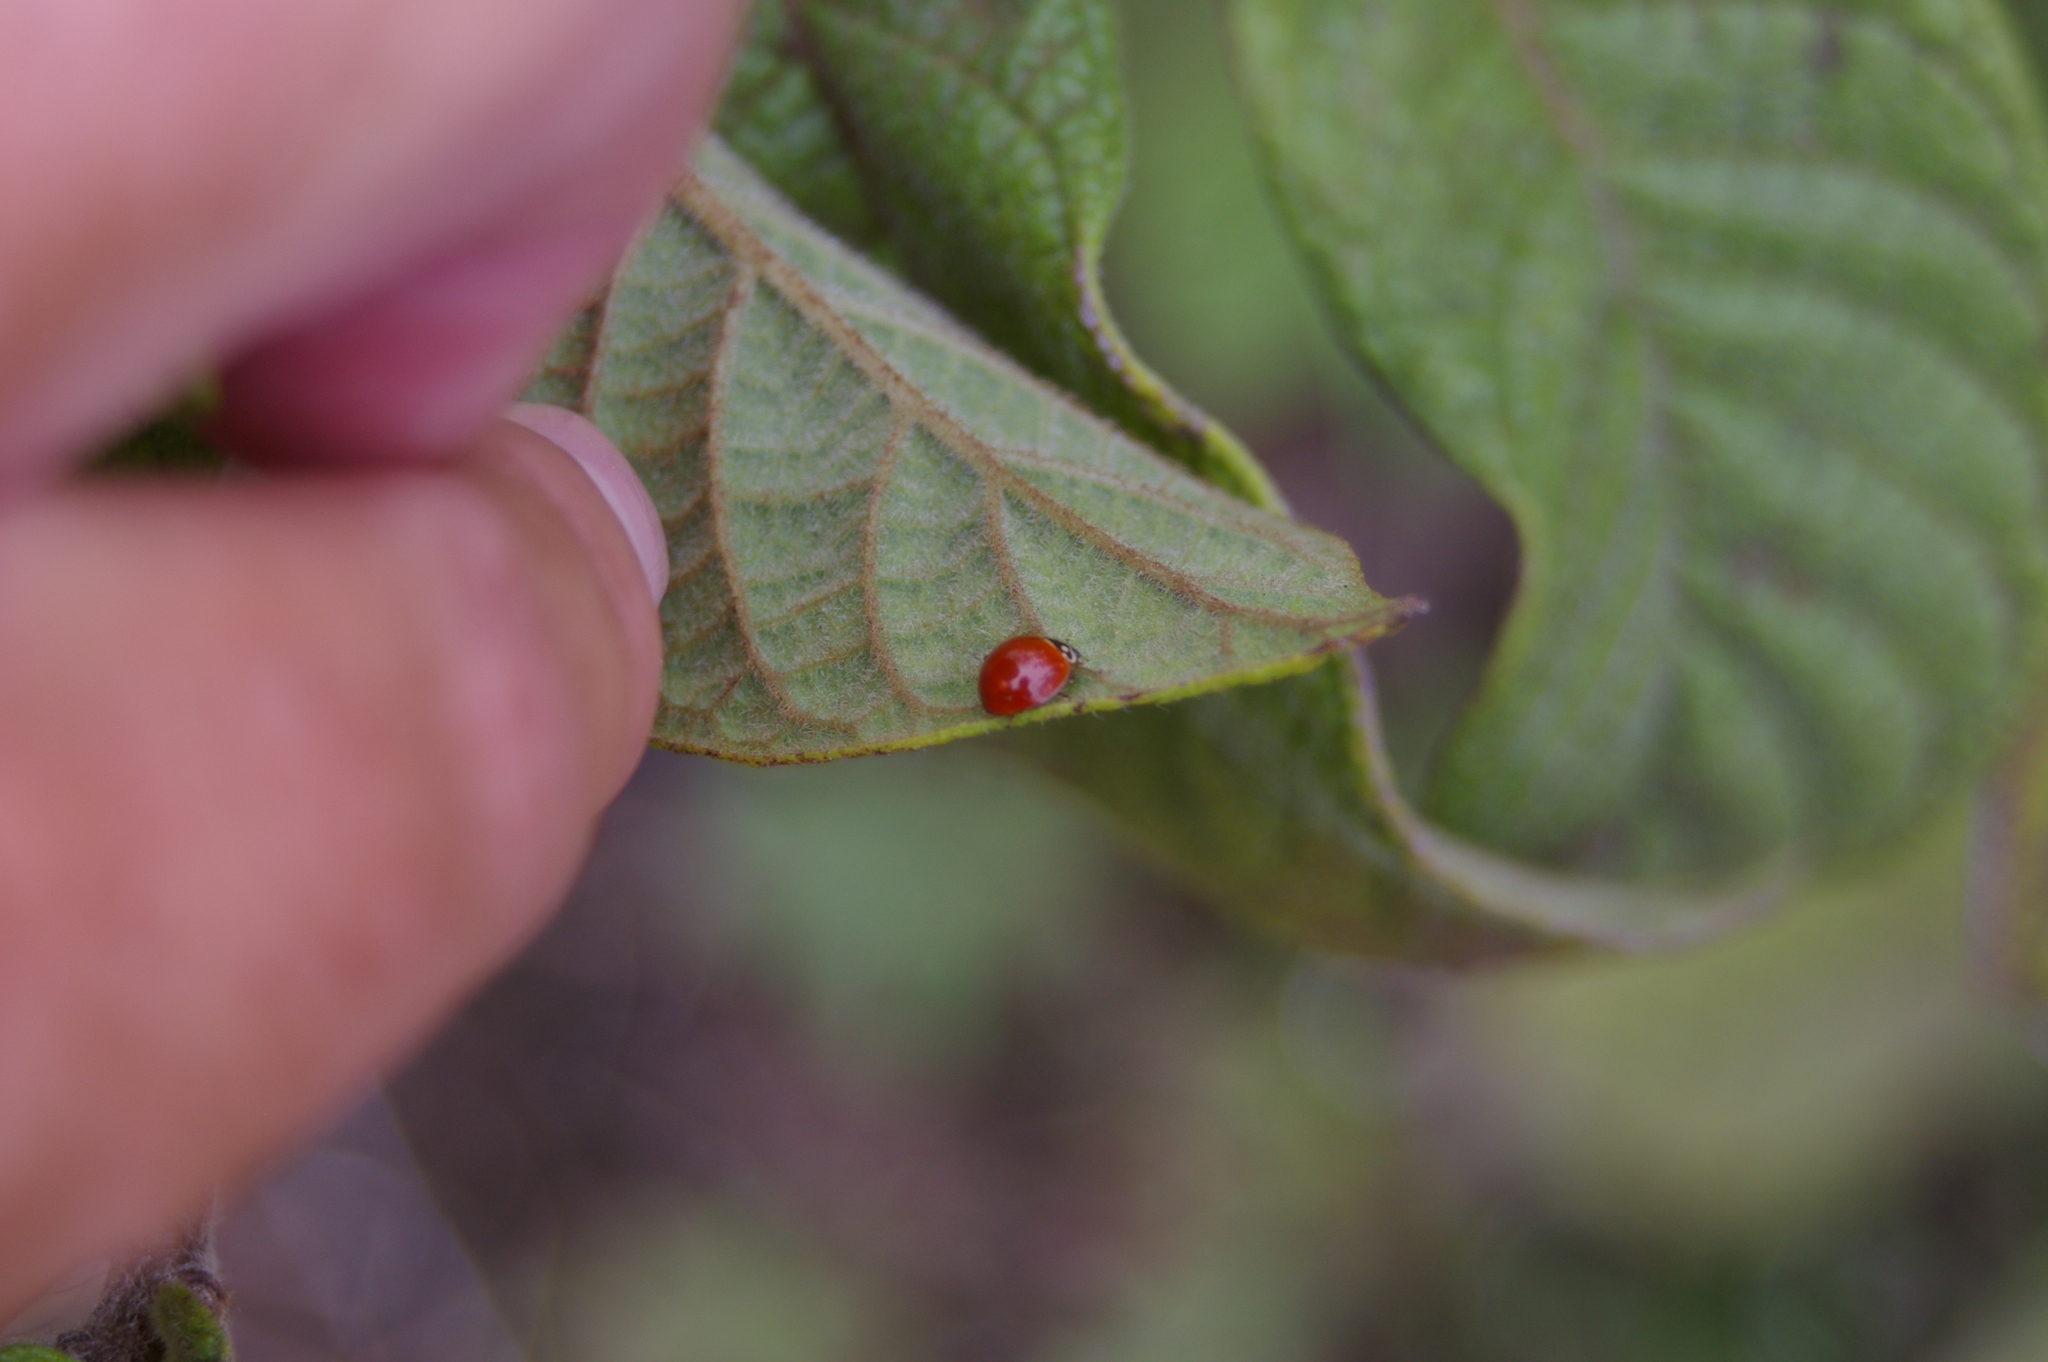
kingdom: Animalia
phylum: Arthropoda
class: Insecta
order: Coleoptera
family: Coccinellidae
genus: Cycloneda
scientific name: Cycloneda sanguinea
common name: Ladybird beetle
